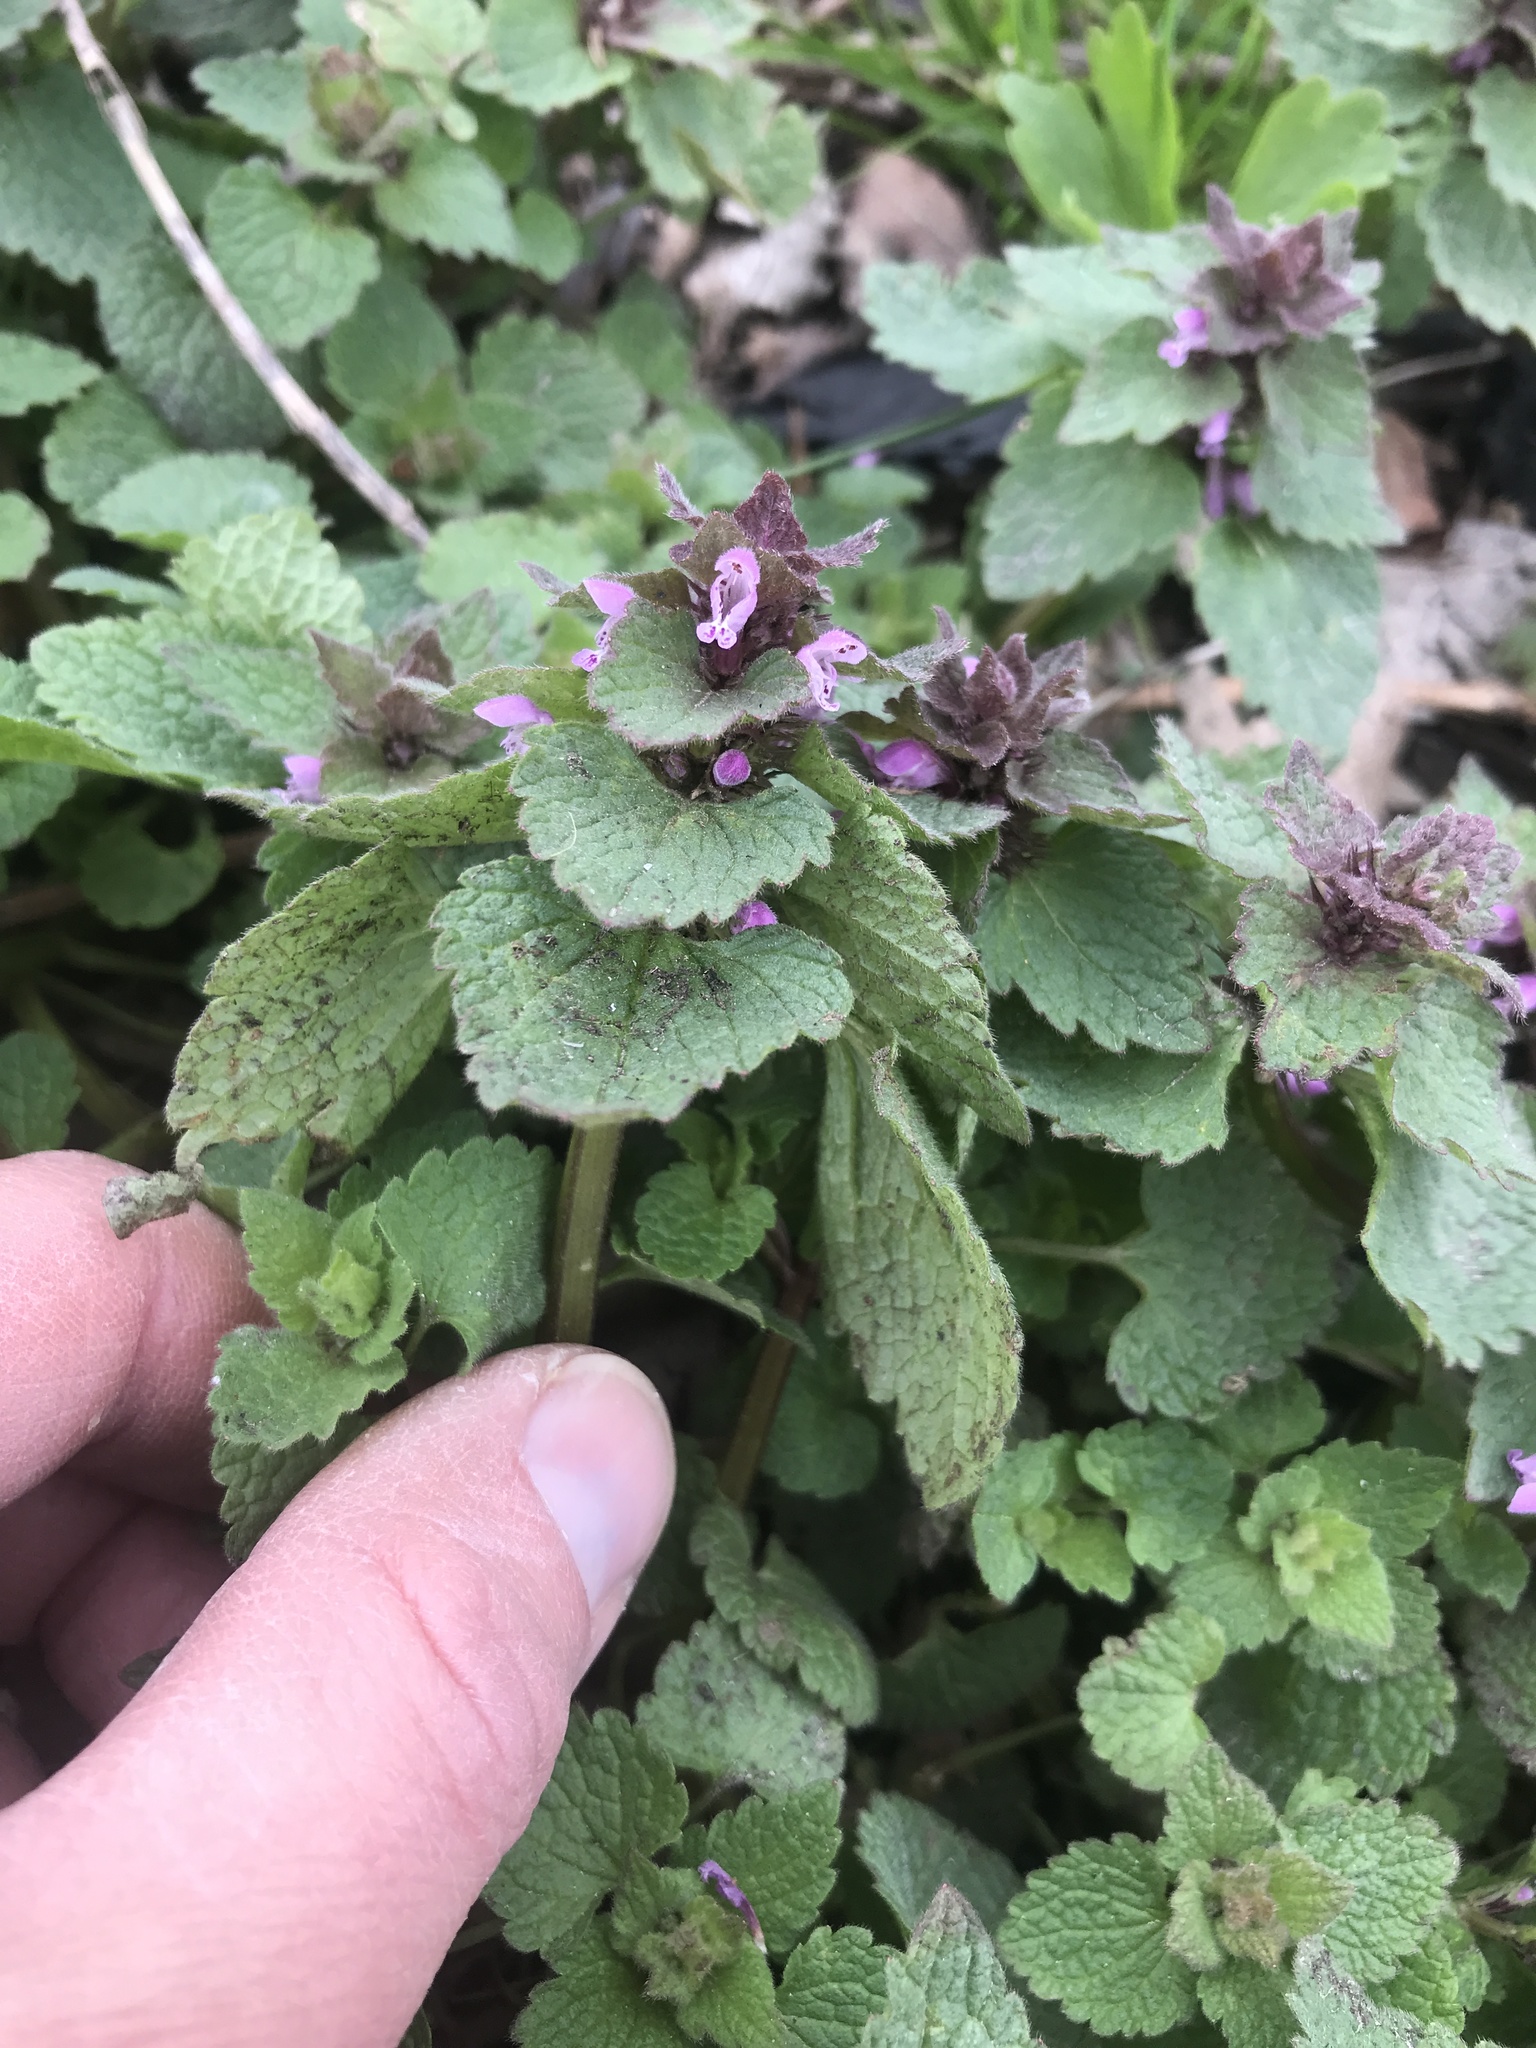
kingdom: Plantae
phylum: Tracheophyta
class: Magnoliopsida
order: Lamiales
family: Lamiaceae
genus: Lamium
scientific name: Lamium purpureum
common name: Red dead-nettle
